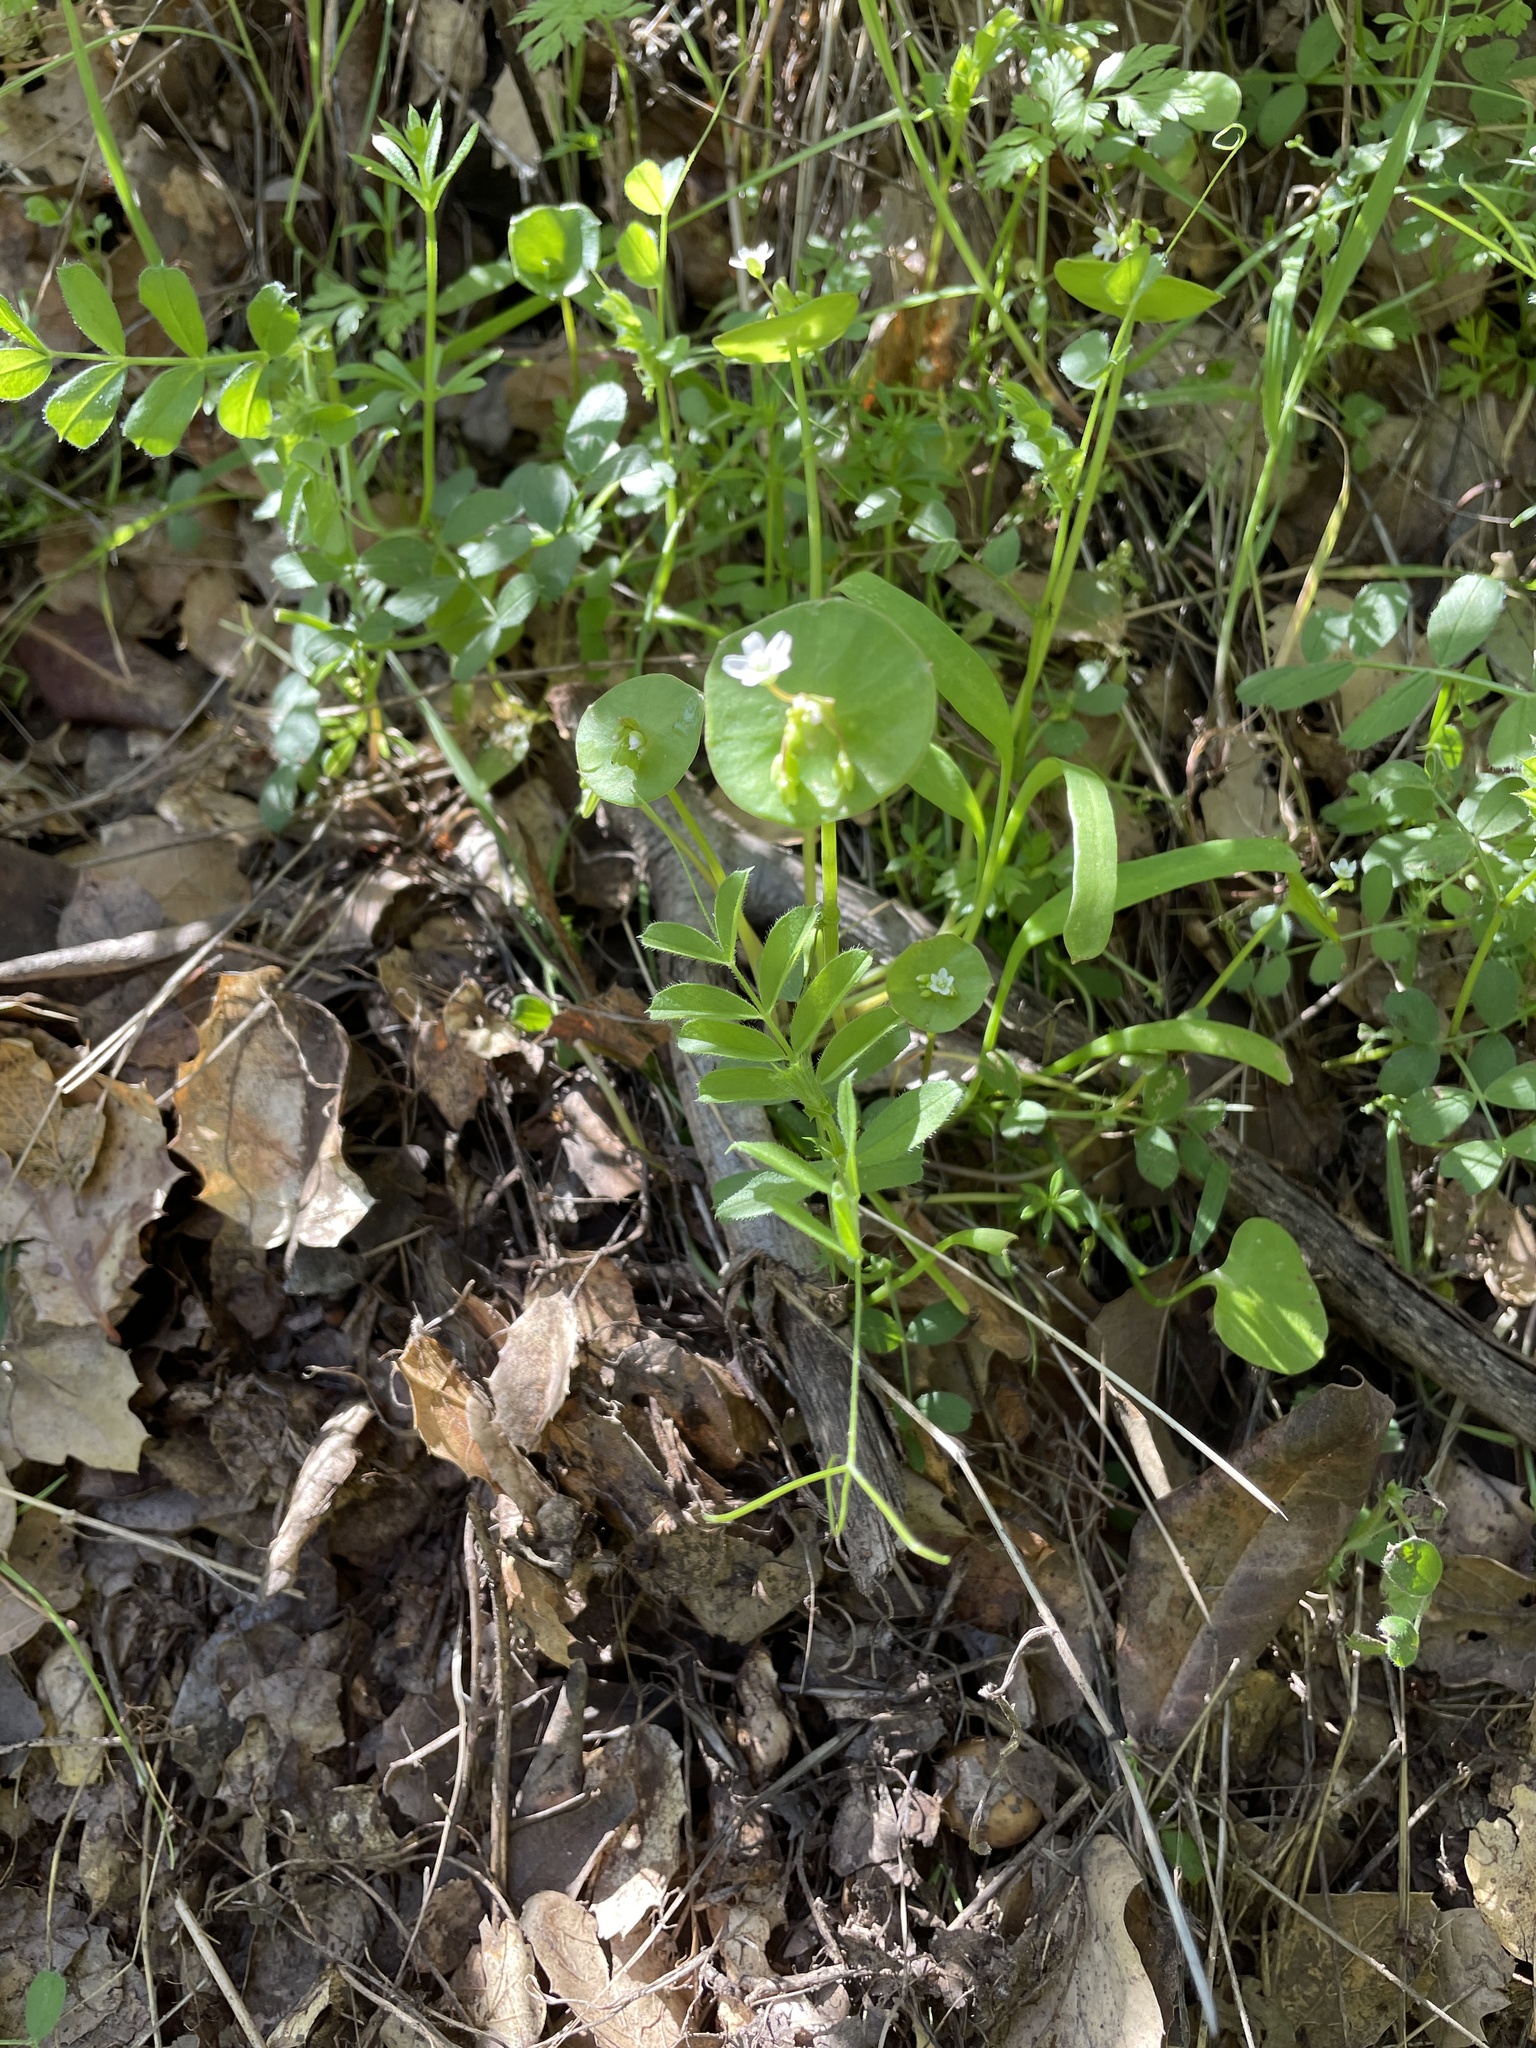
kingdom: Plantae
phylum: Tracheophyta
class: Magnoliopsida
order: Caryophyllales
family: Montiaceae
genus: Claytonia
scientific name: Claytonia perfoliata
